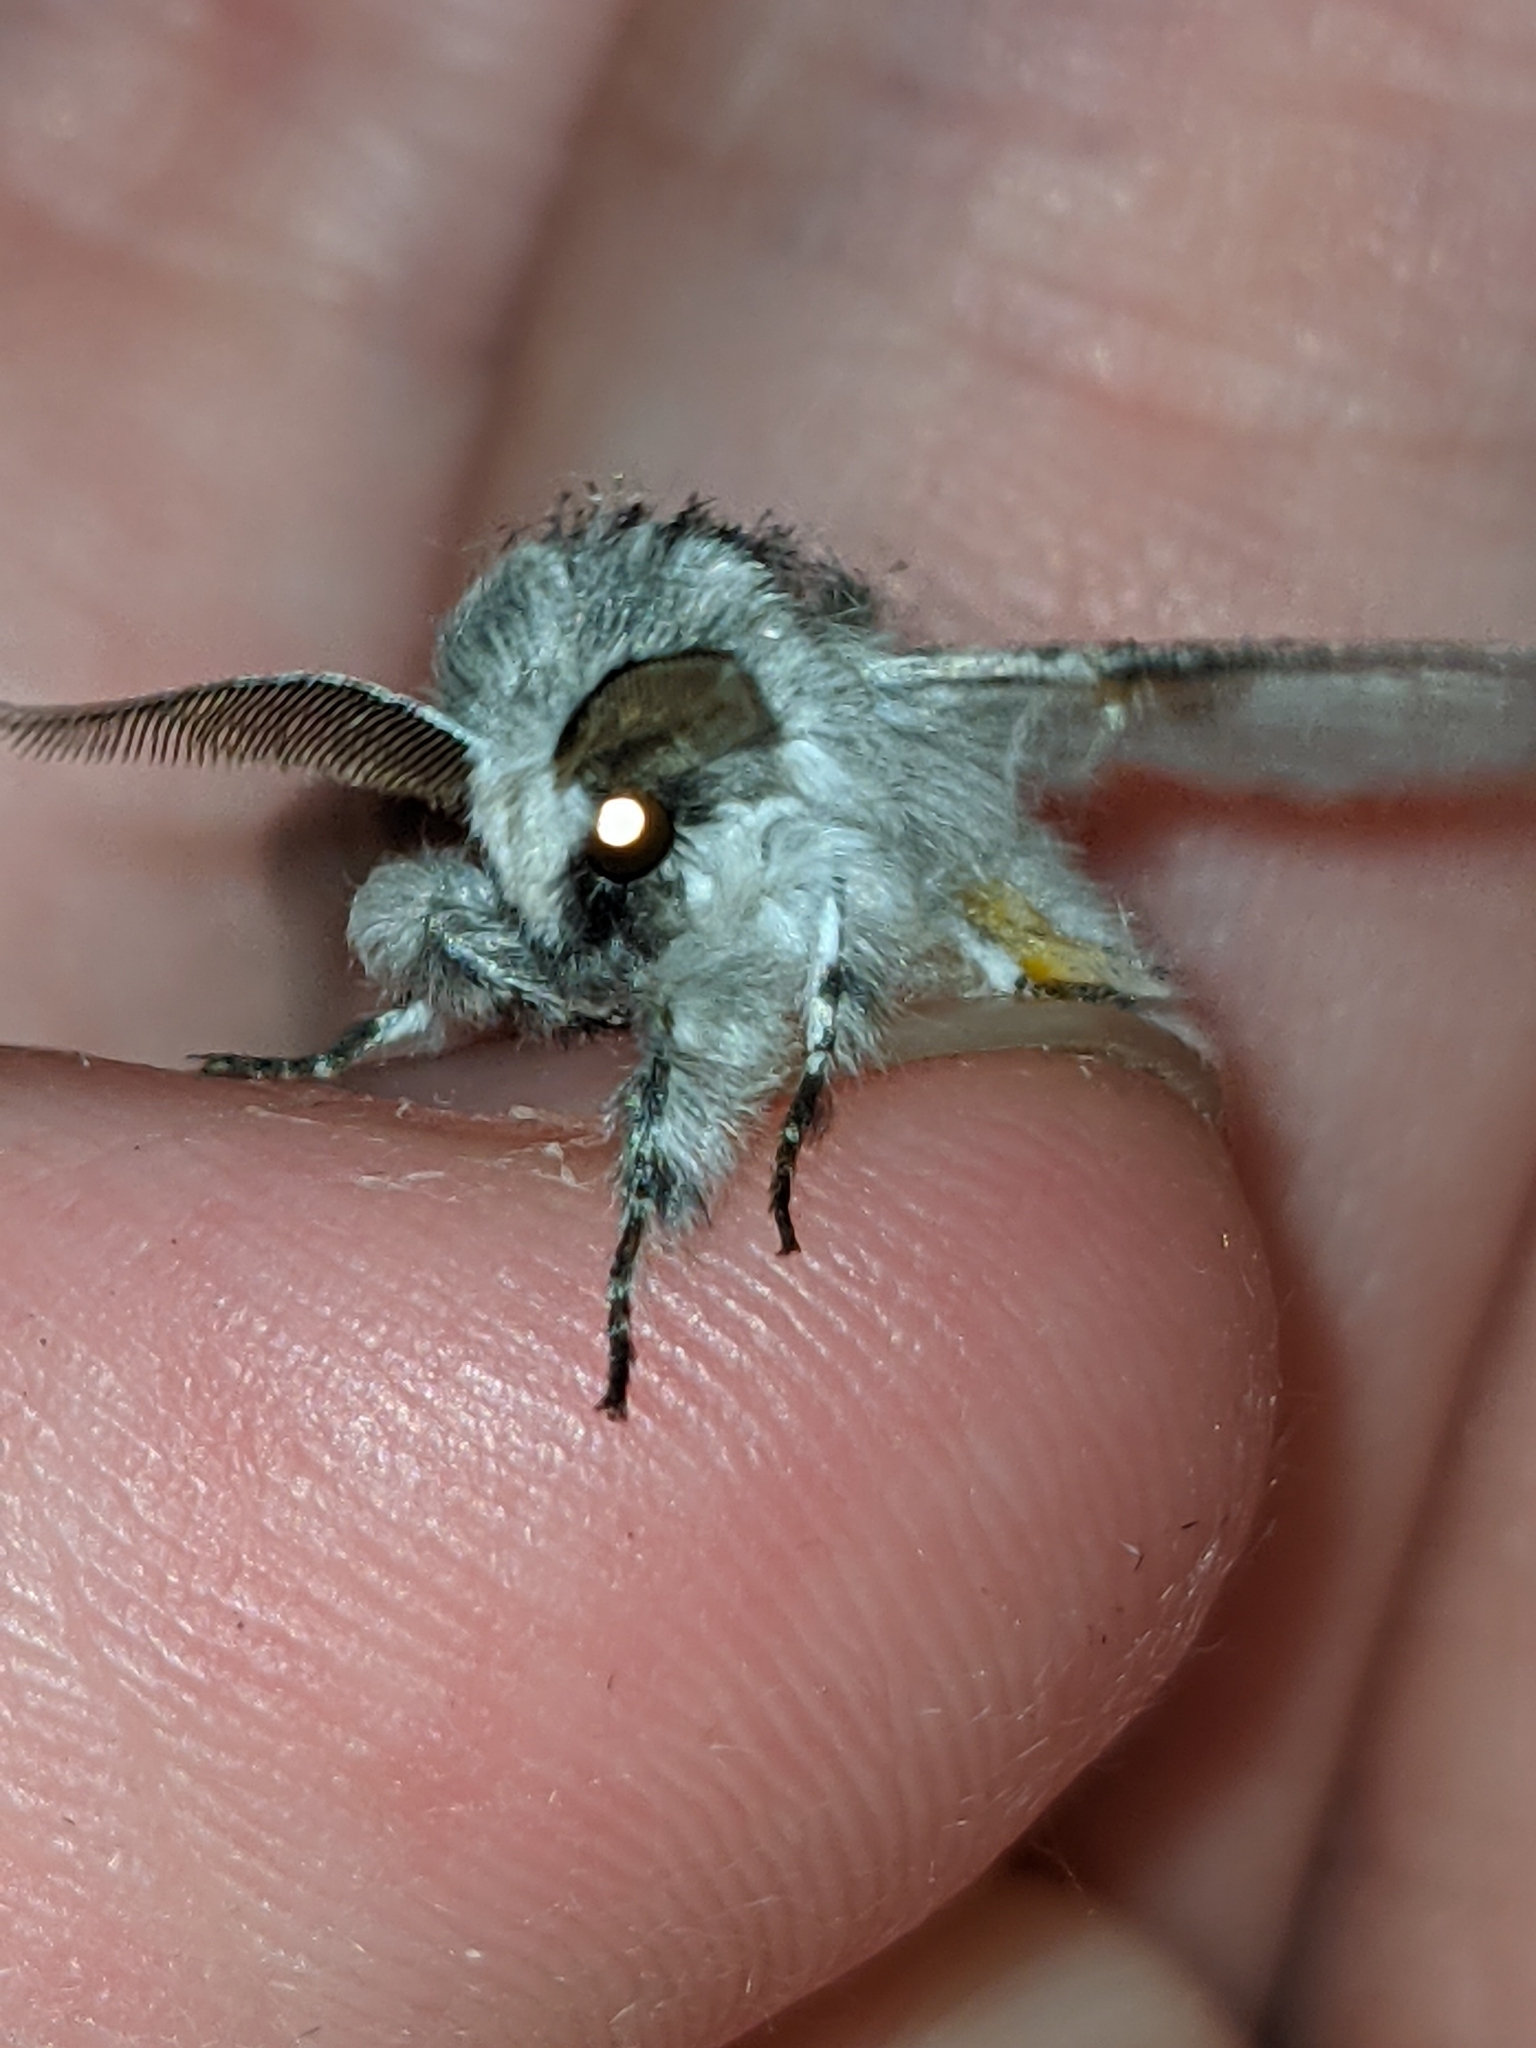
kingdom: Animalia
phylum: Arthropoda
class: Insecta
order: Lepidoptera
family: Notodontidae
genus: Furcula
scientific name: Furcula occidentalis
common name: Western furcula moth
